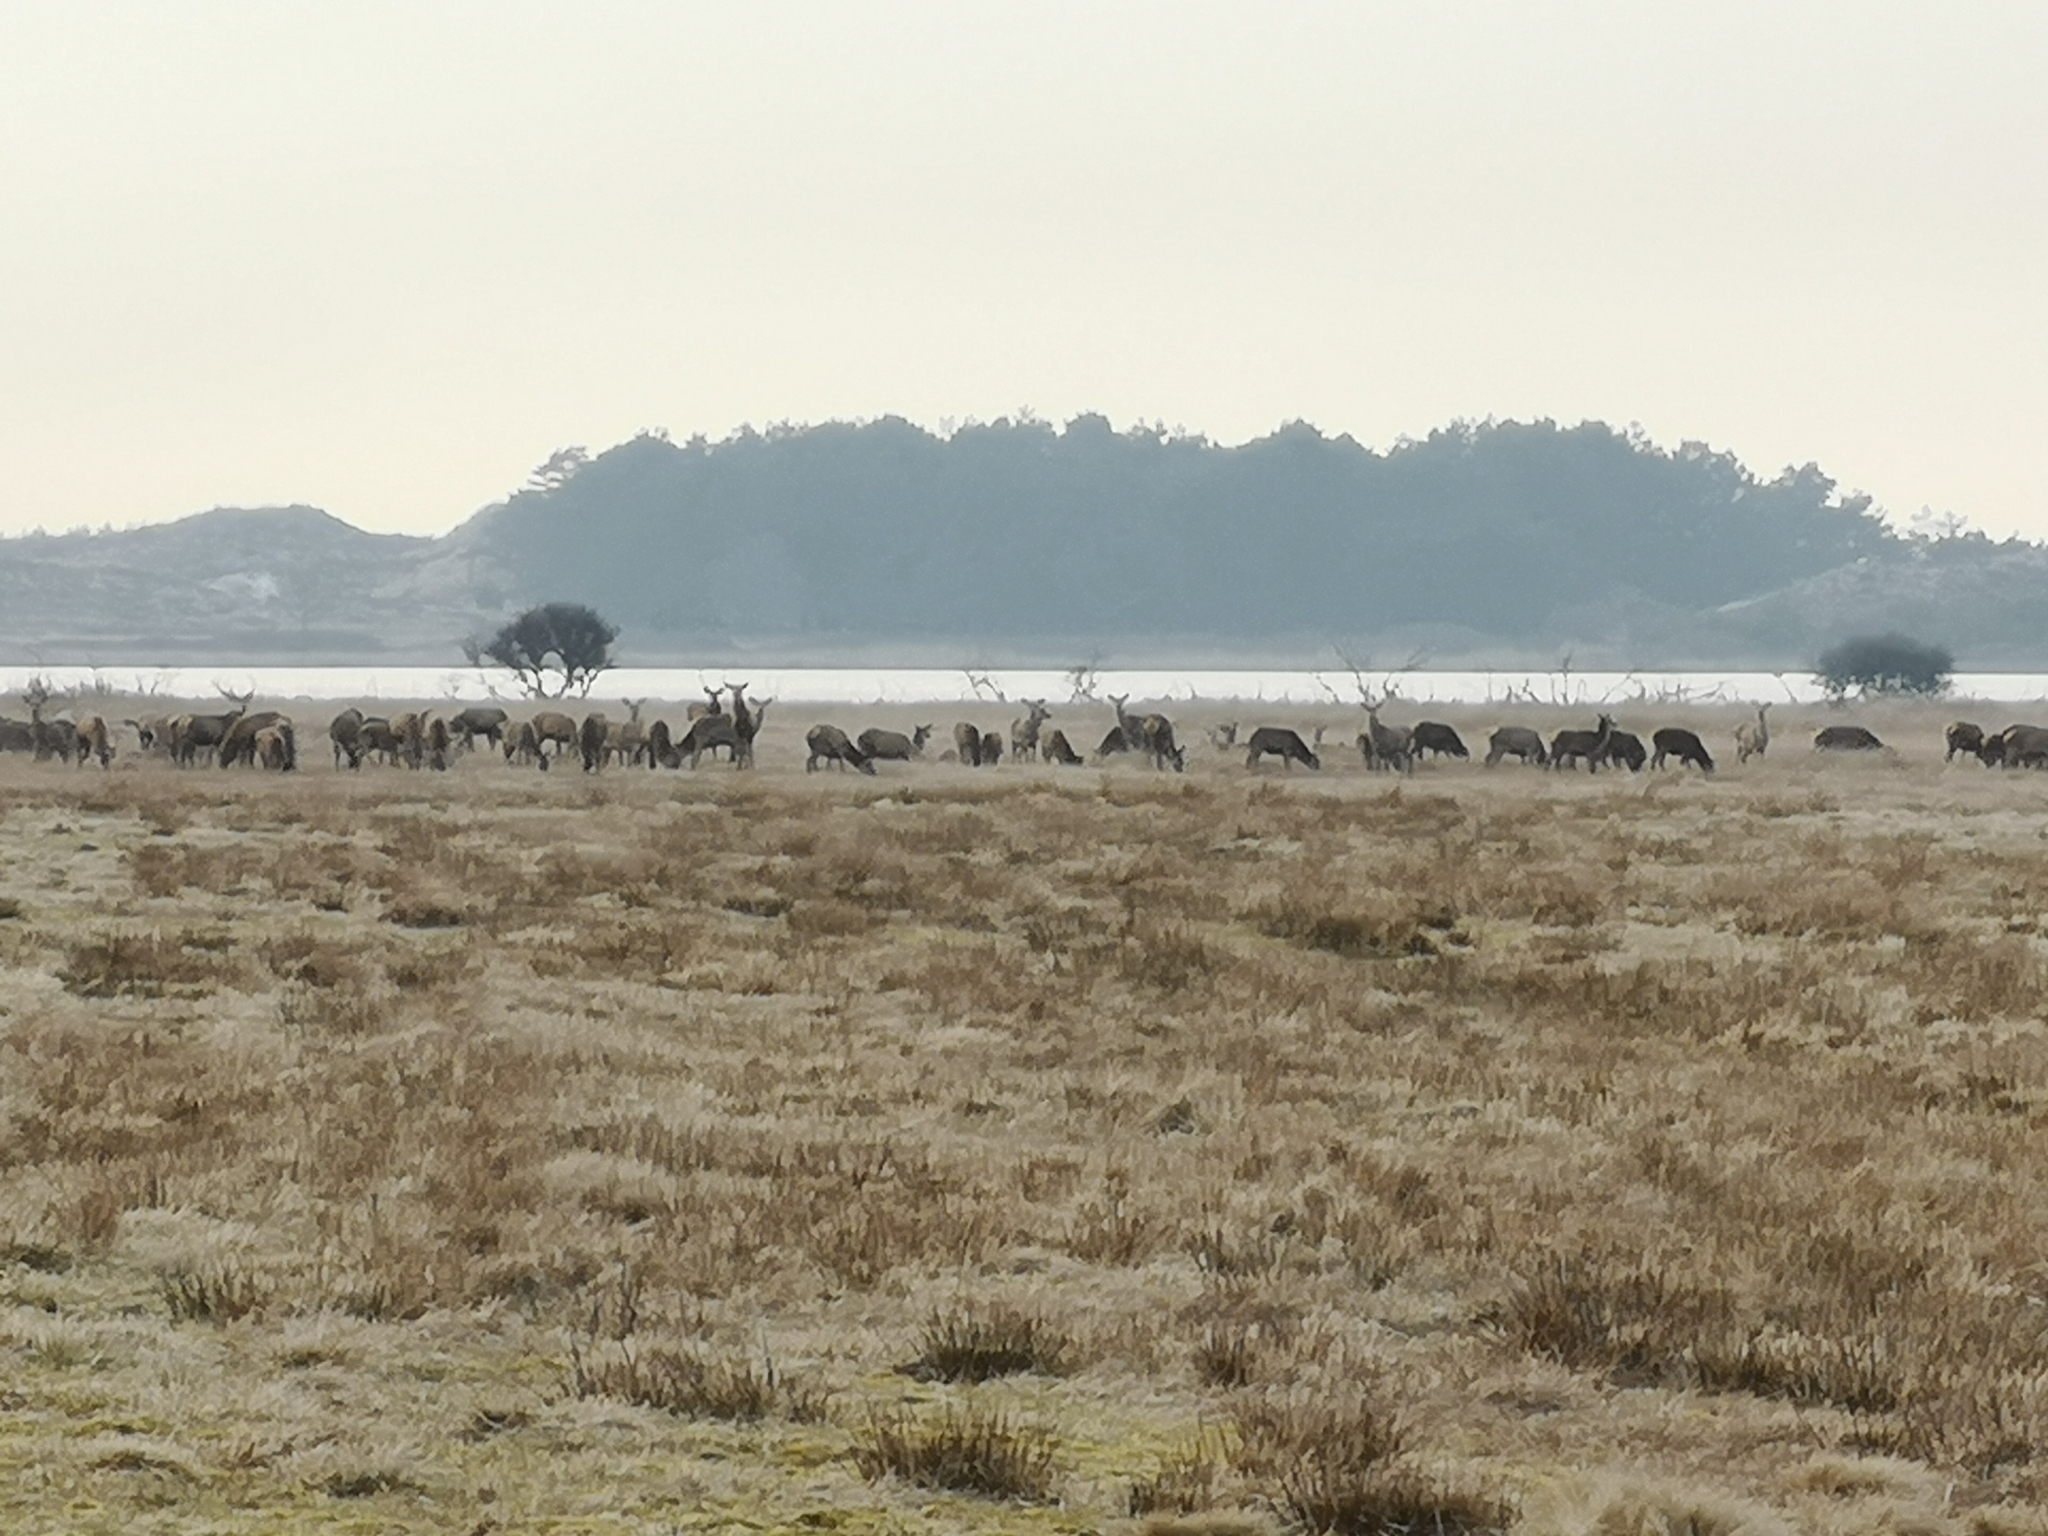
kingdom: Animalia
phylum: Chordata
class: Mammalia
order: Artiodactyla
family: Cervidae
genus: Cervus
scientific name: Cervus elaphus
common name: Red deer
